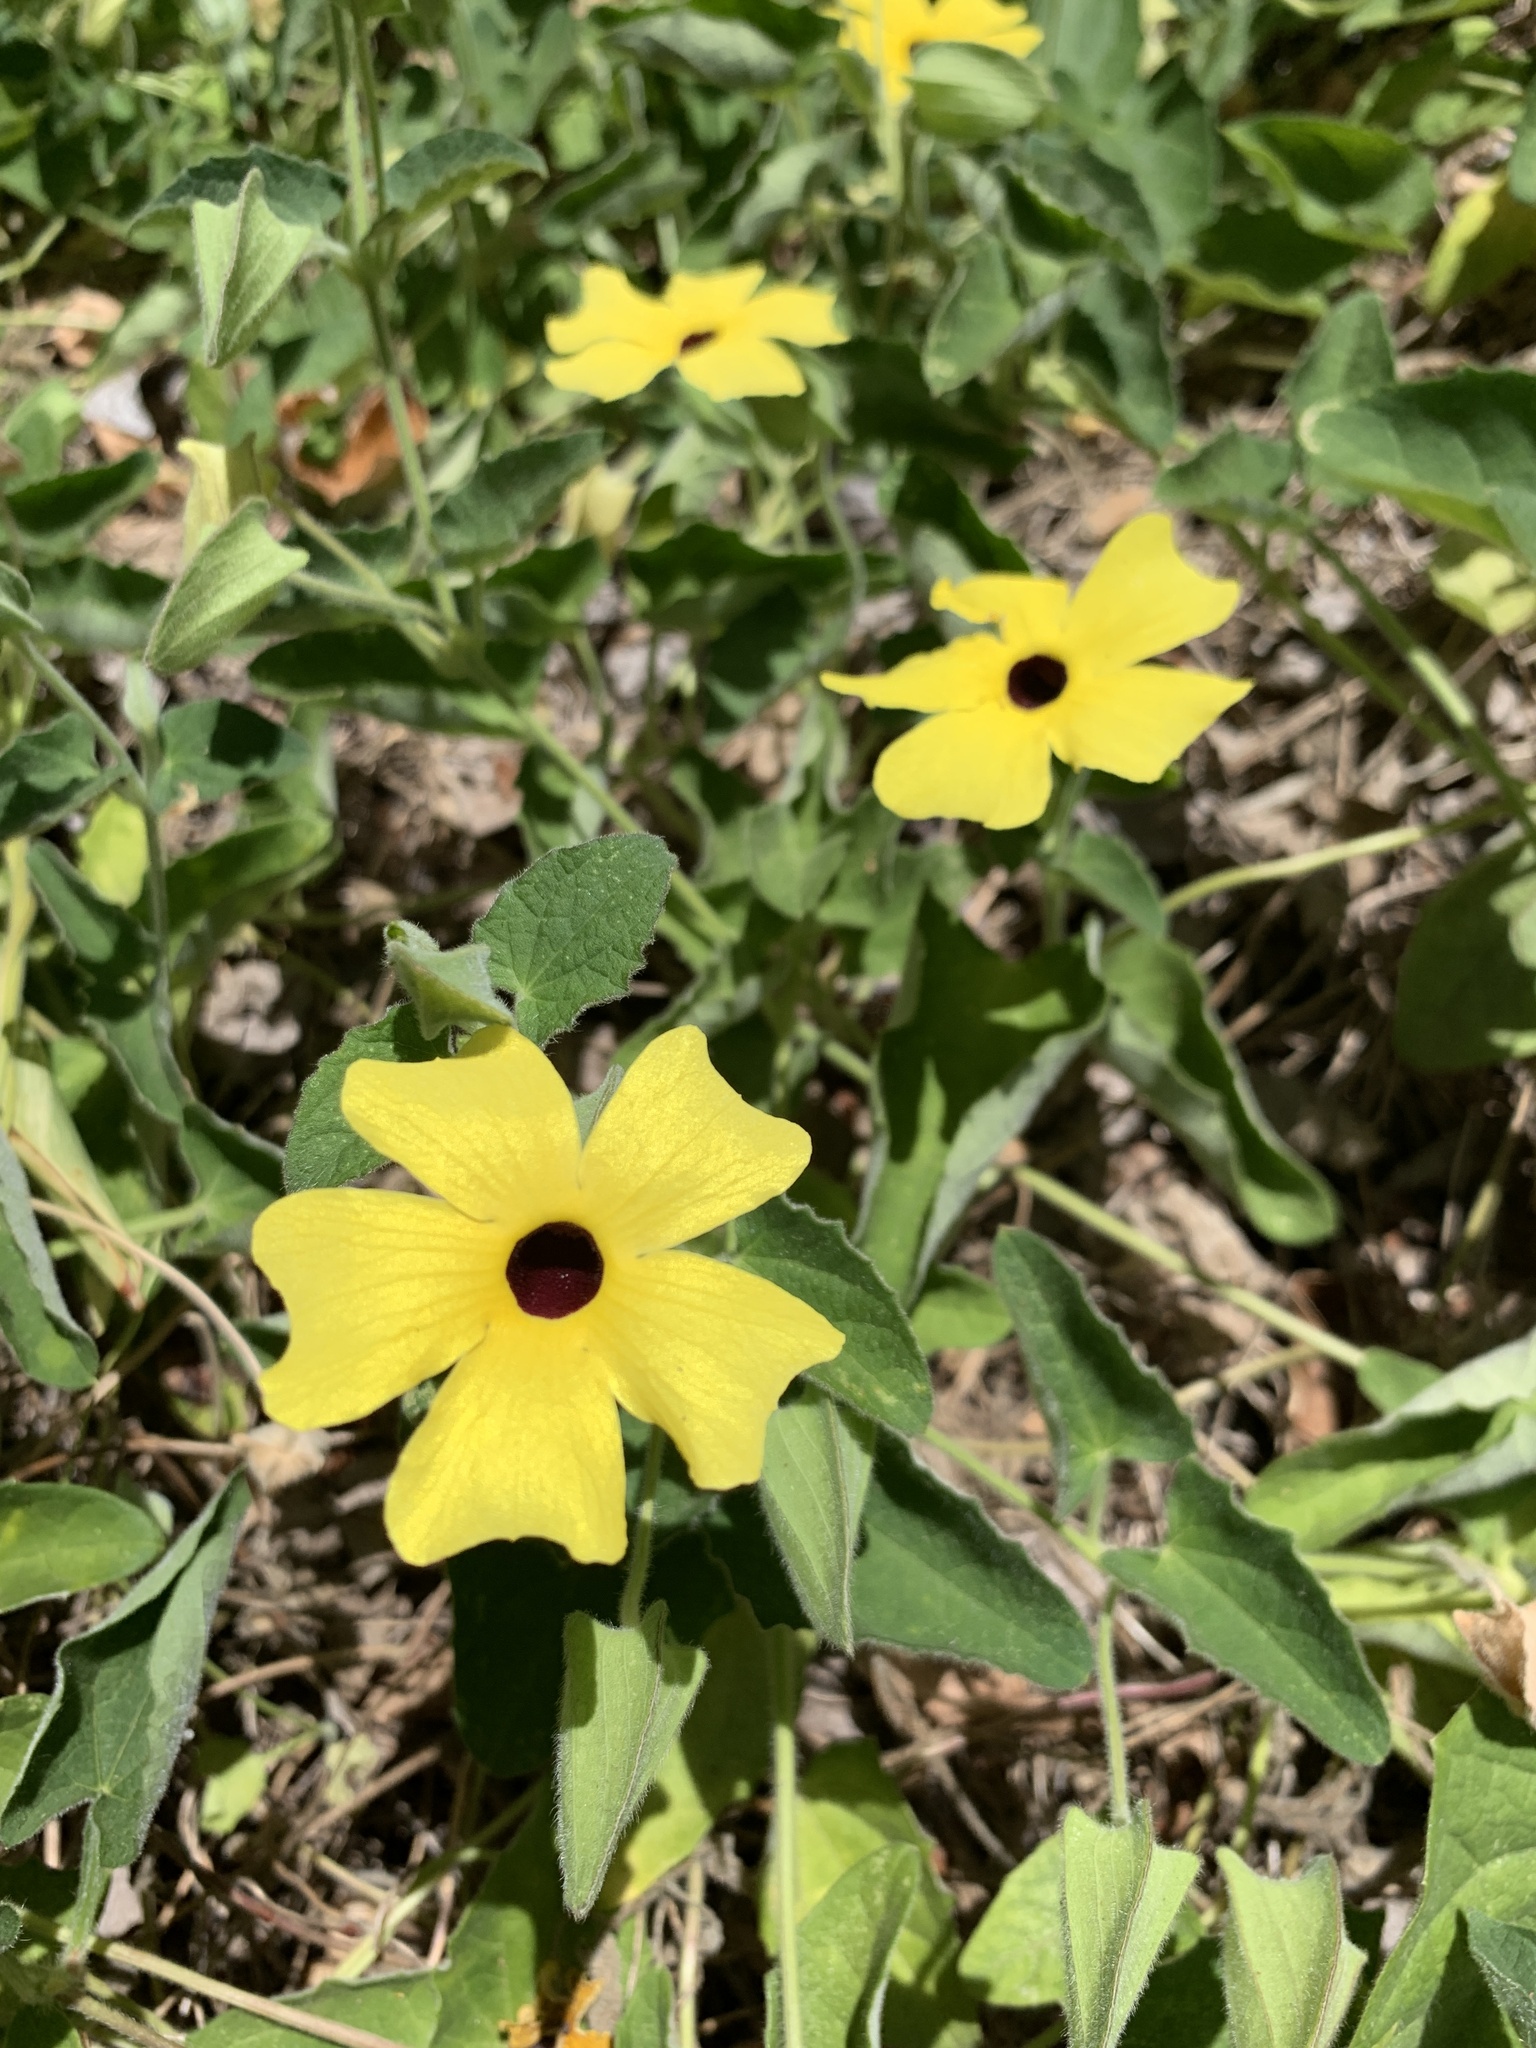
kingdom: Plantae
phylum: Tracheophyta
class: Magnoliopsida
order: Lamiales
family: Acanthaceae
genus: Thunbergia
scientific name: Thunbergia alata
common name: Blackeyed susan vine
